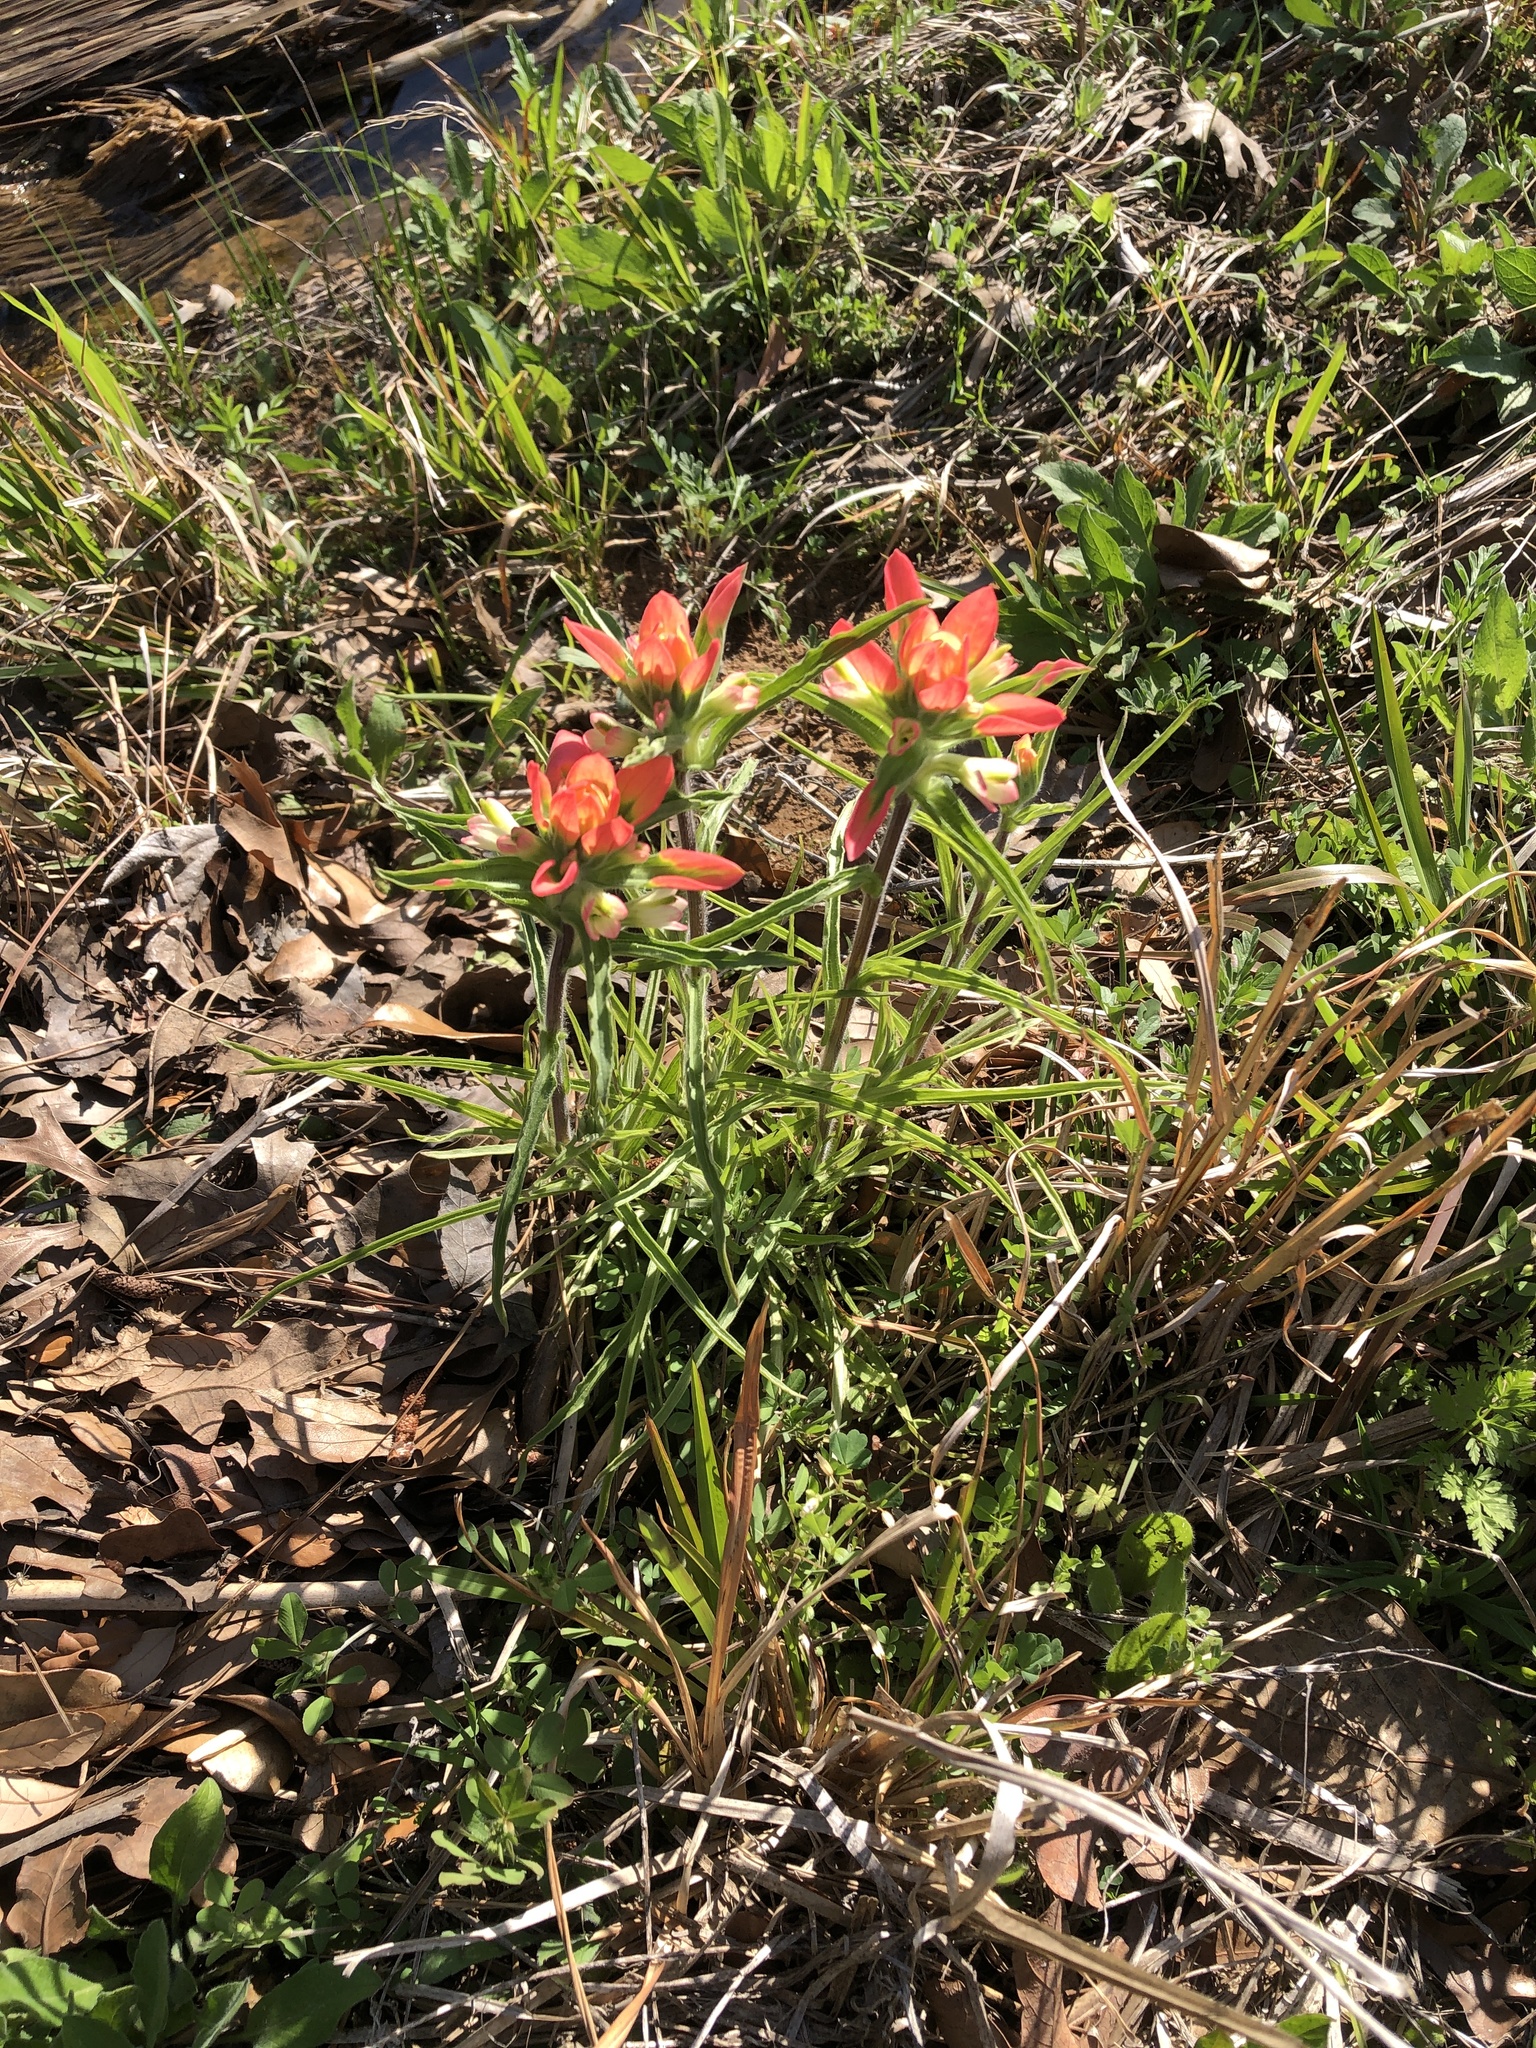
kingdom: Plantae
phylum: Tracheophyta
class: Magnoliopsida
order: Lamiales
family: Orobanchaceae
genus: Castilleja
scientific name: Castilleja indivisa
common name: Texas paintbrush
